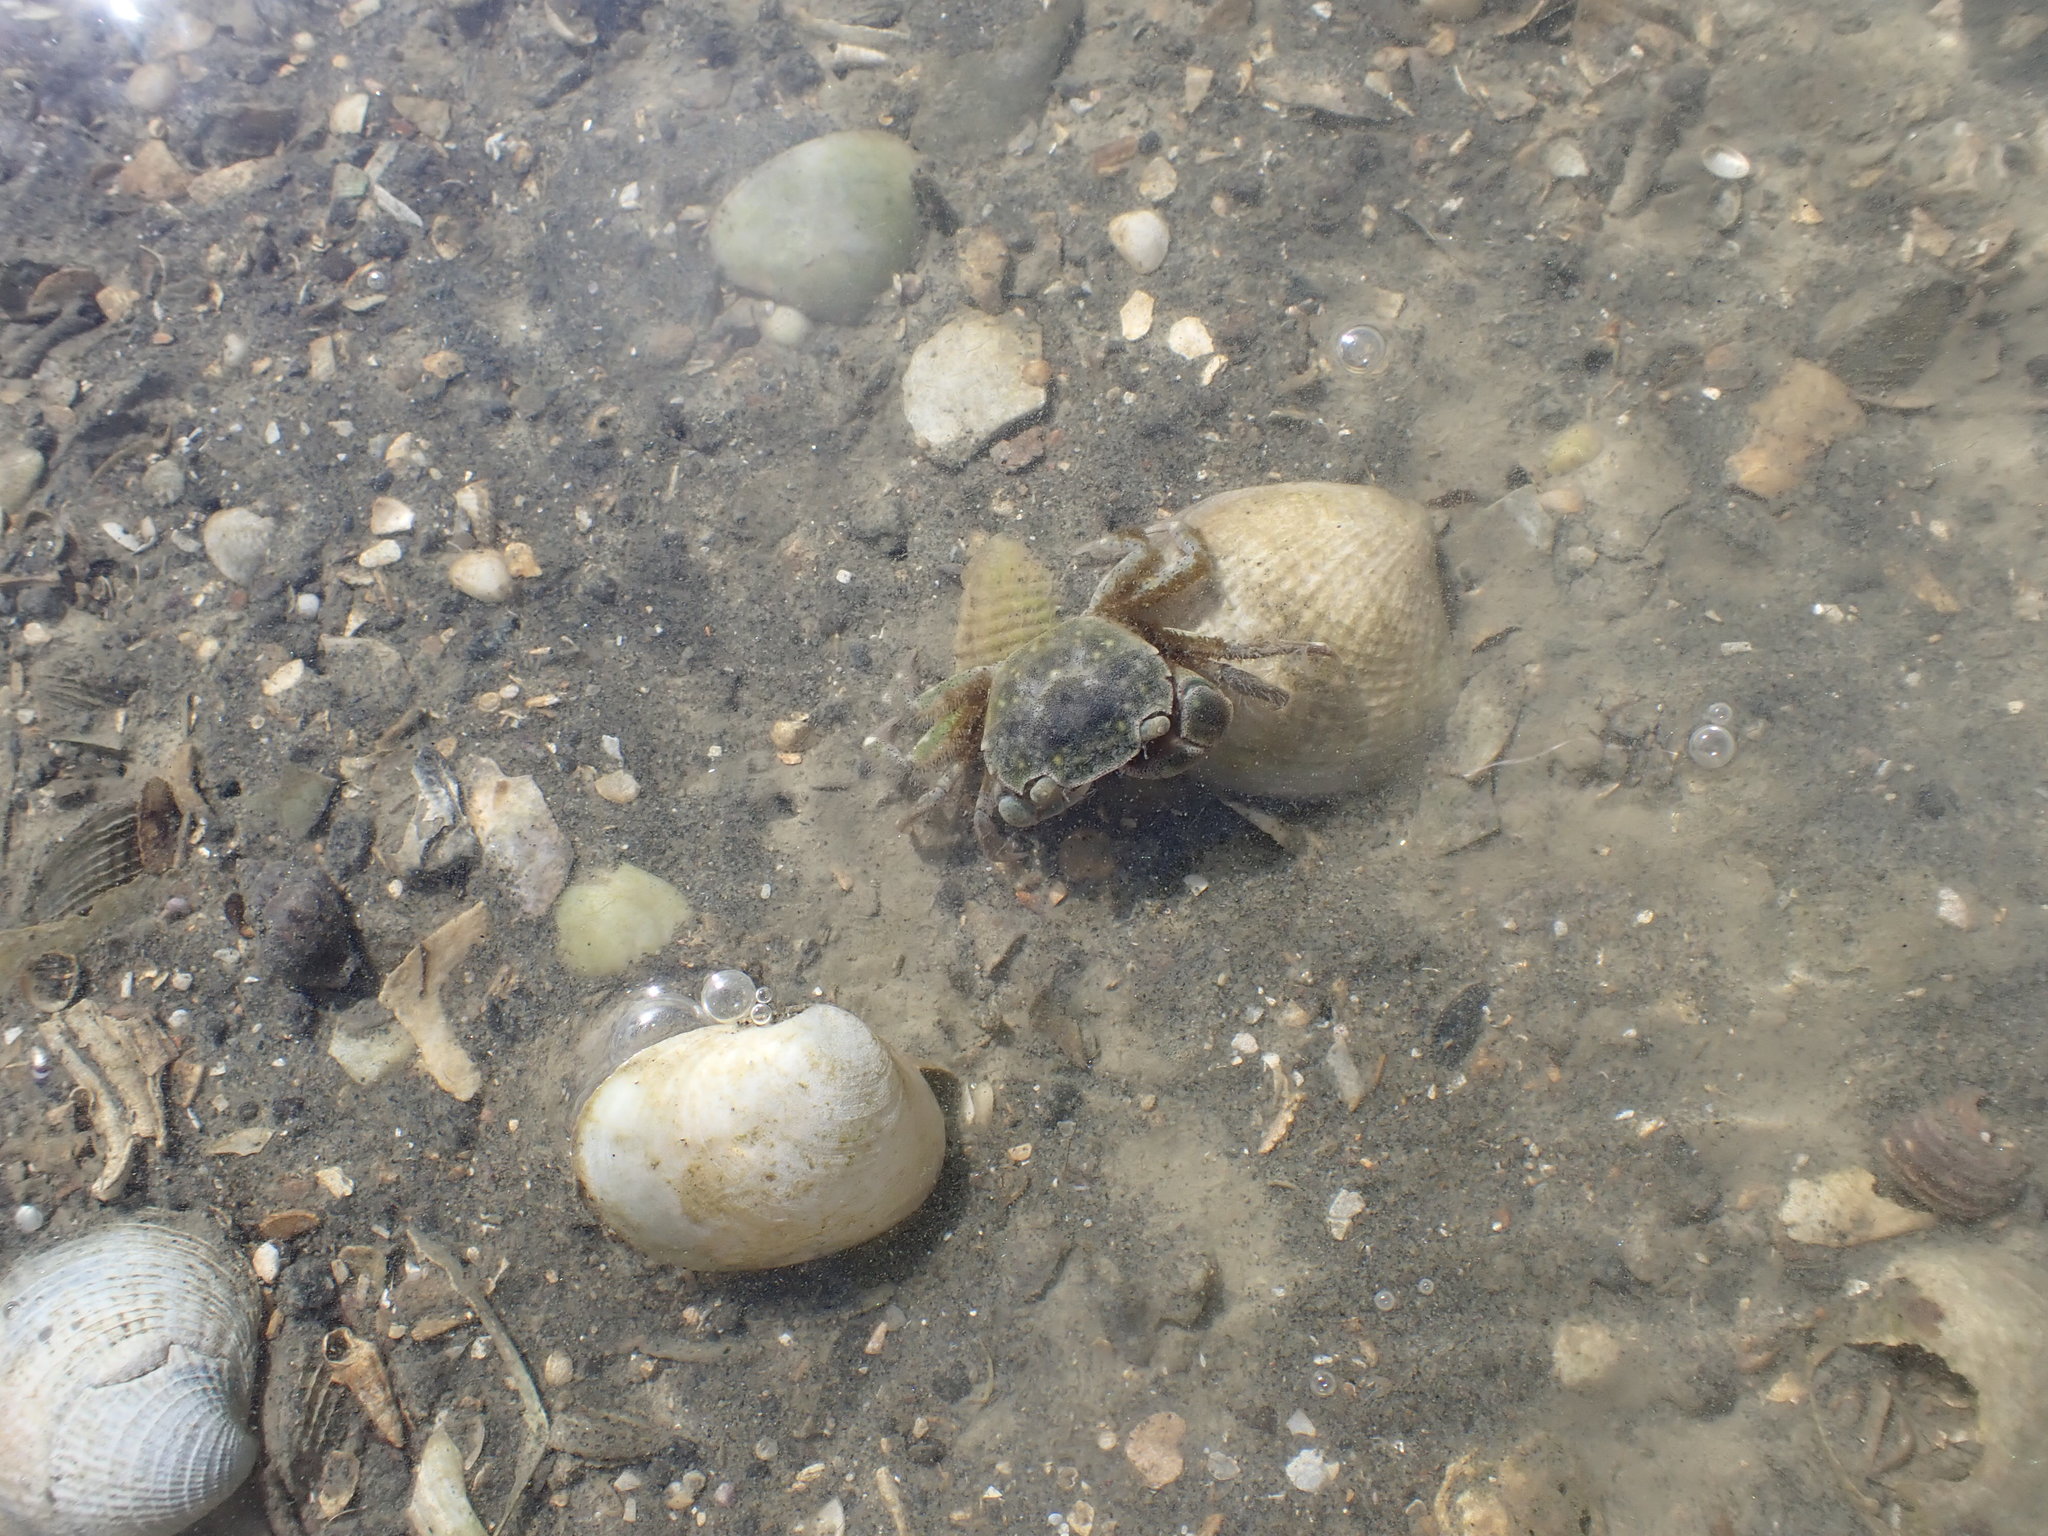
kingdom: Animalia
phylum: Arthropoda
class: Malacostraca
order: Decapoda
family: Varunidae
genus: Hemigrapsus
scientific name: Hemigrapsus crenulatus
